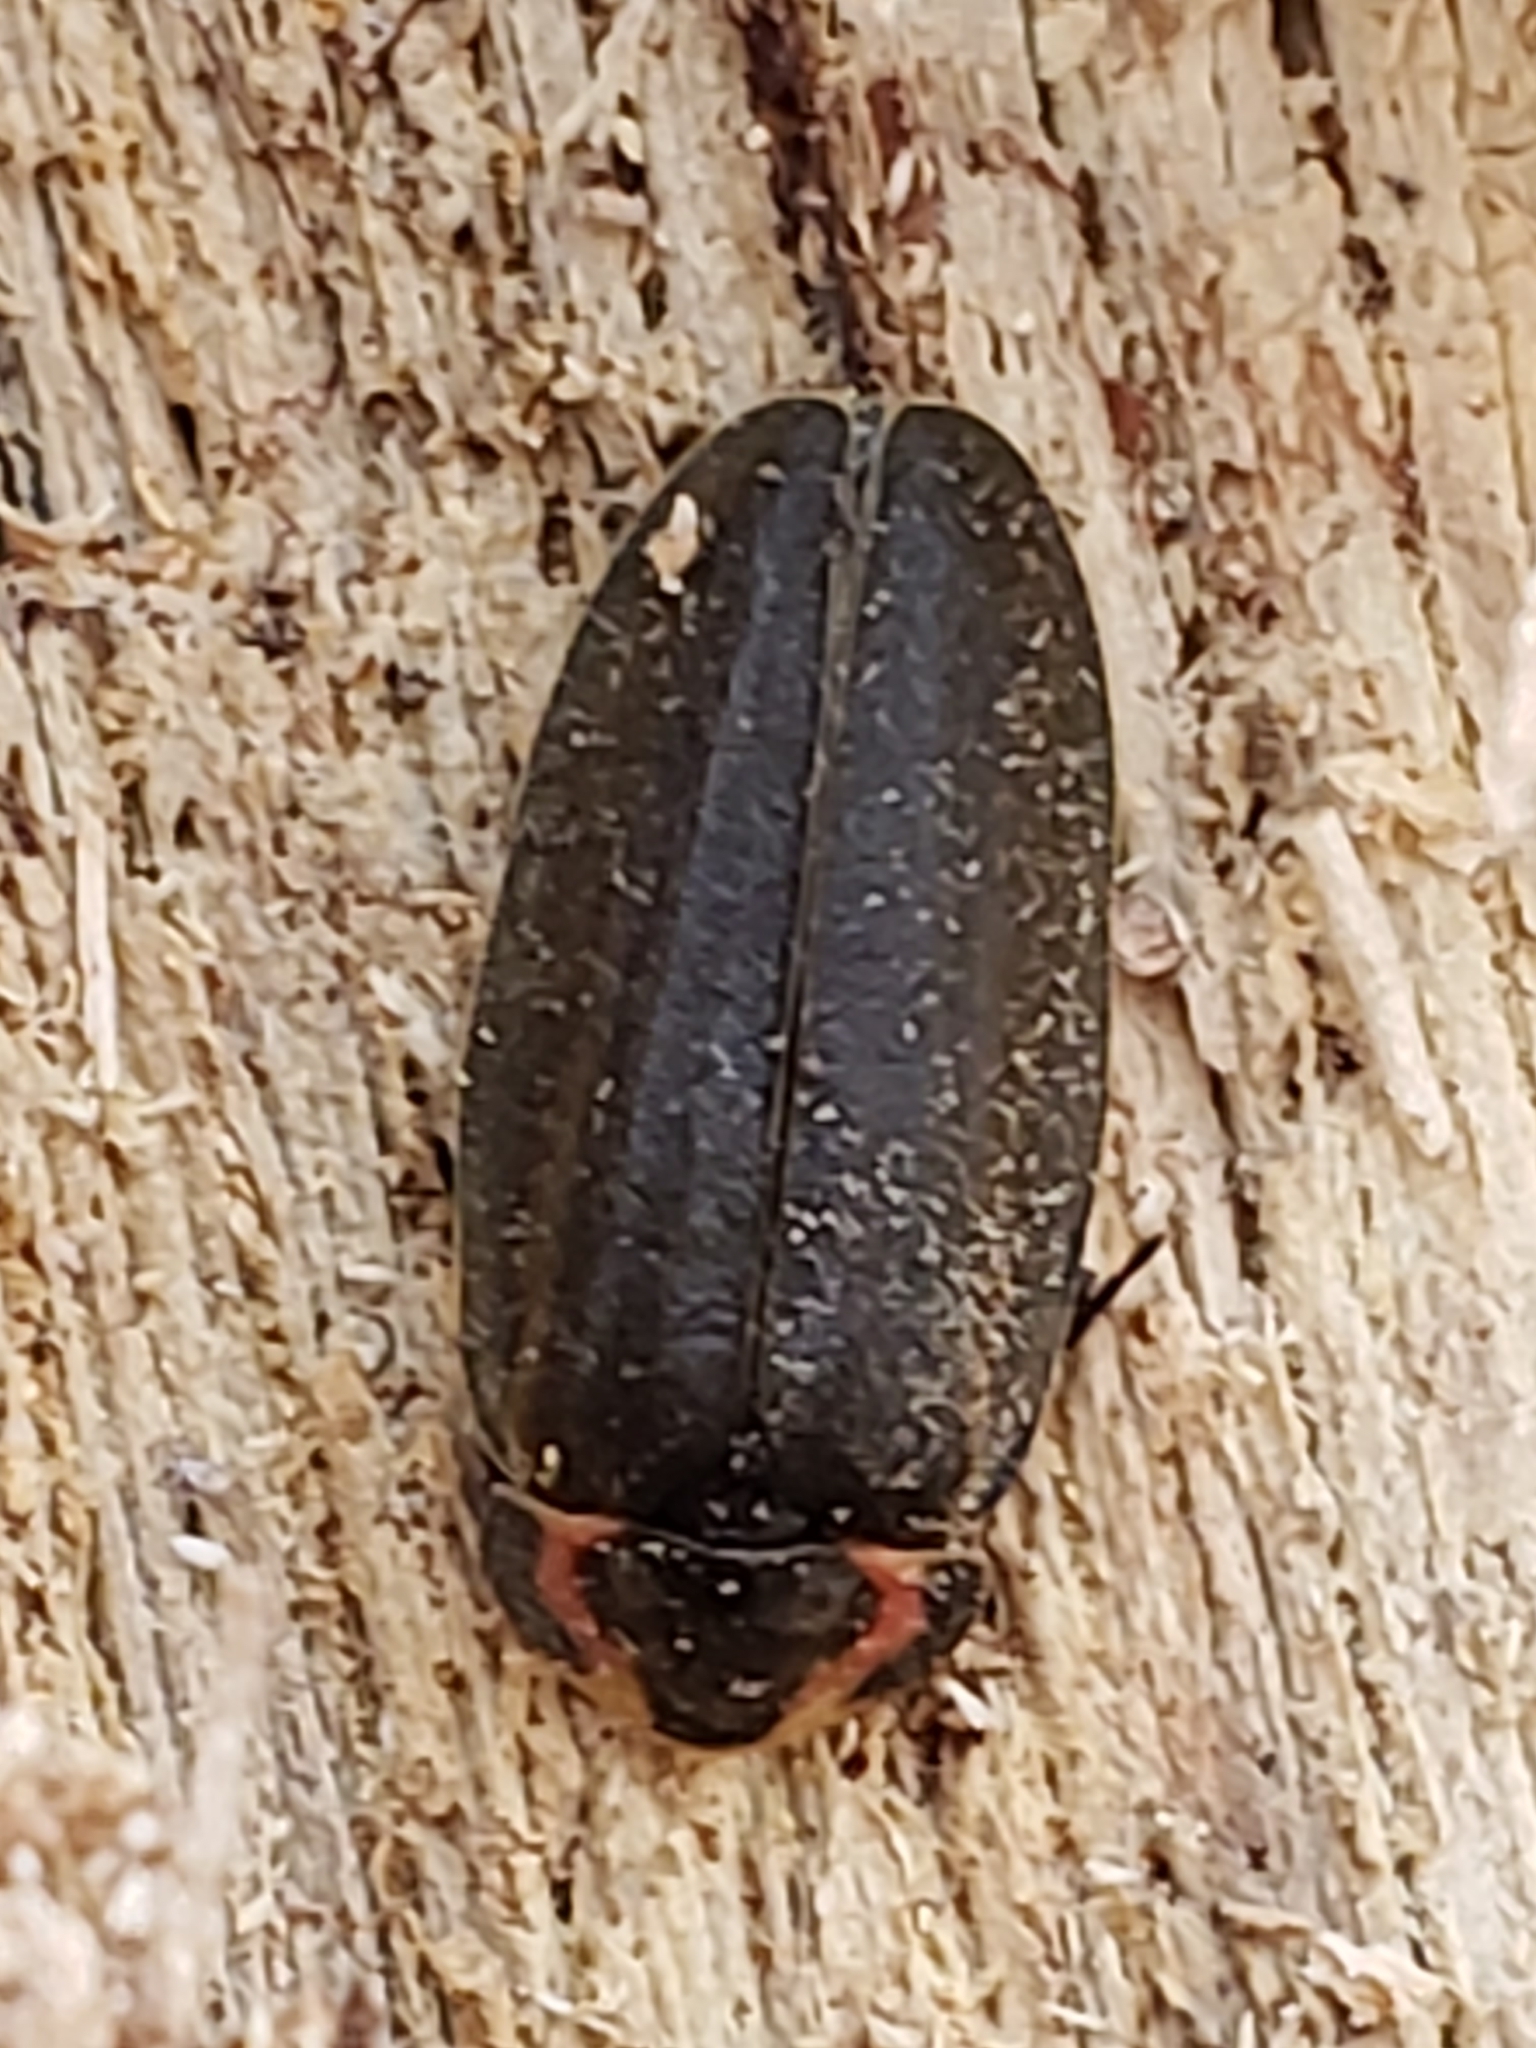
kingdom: Animalia
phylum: Arthropoda
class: Insecta
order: Coleoptera
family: Lampyridae
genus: Photinus
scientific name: Photinus corrusca
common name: Winter firefly
